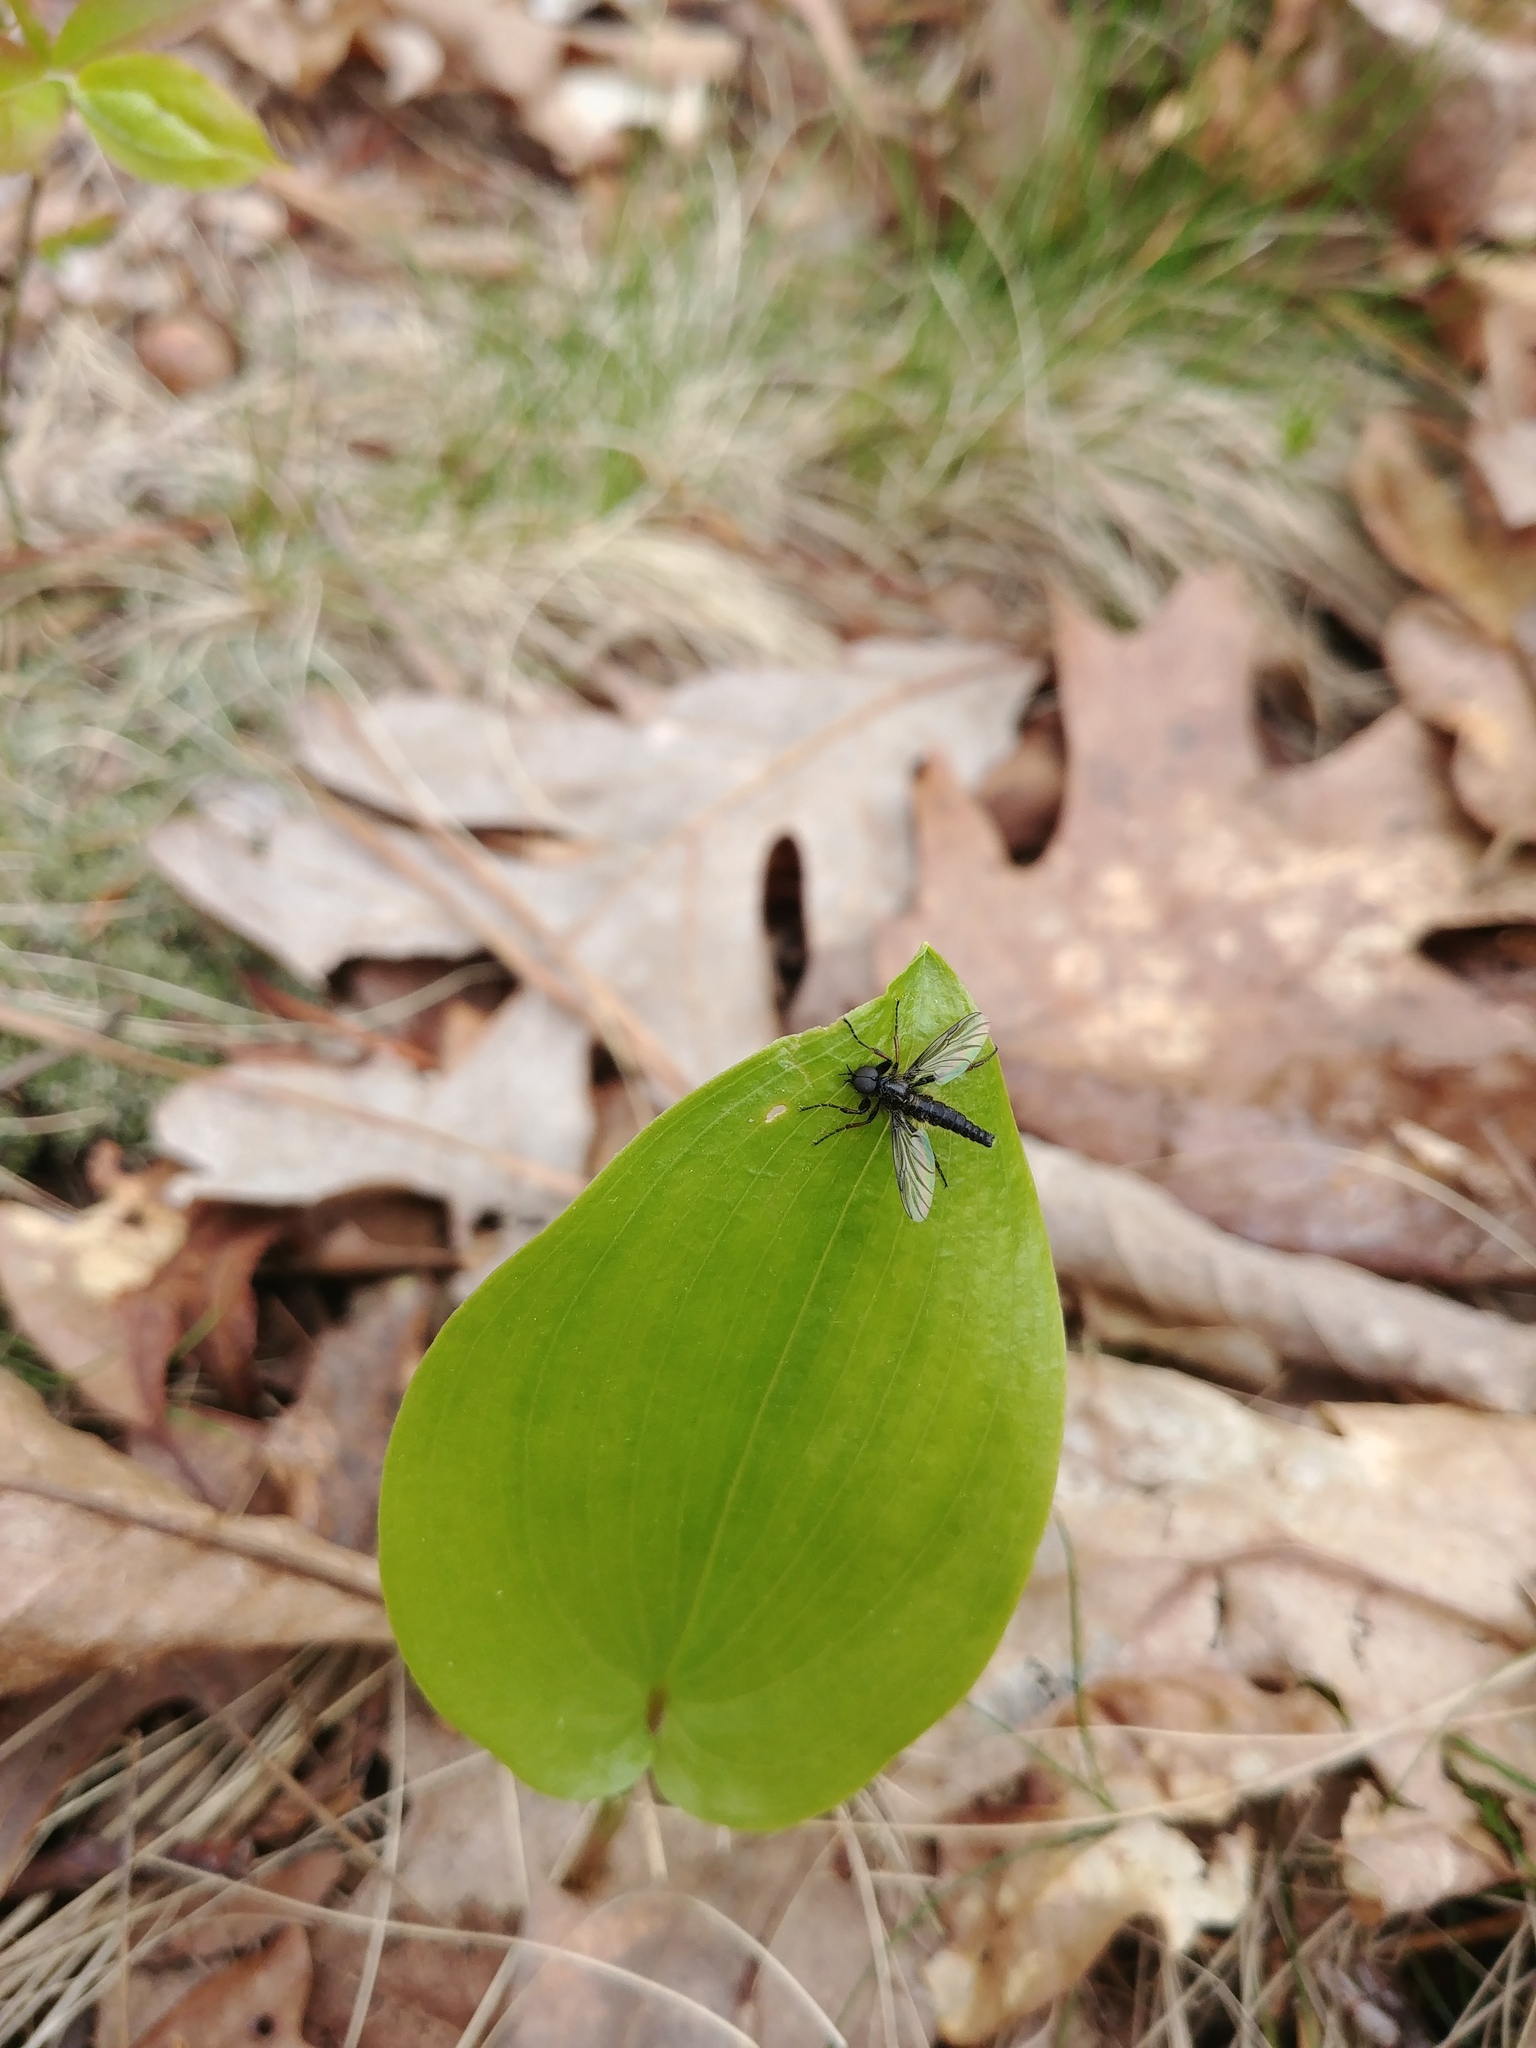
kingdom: Animalia
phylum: Arthropoda
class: Insecta
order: Diptera
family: Bibionidae
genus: Bibio
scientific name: Bibio lanigerus
